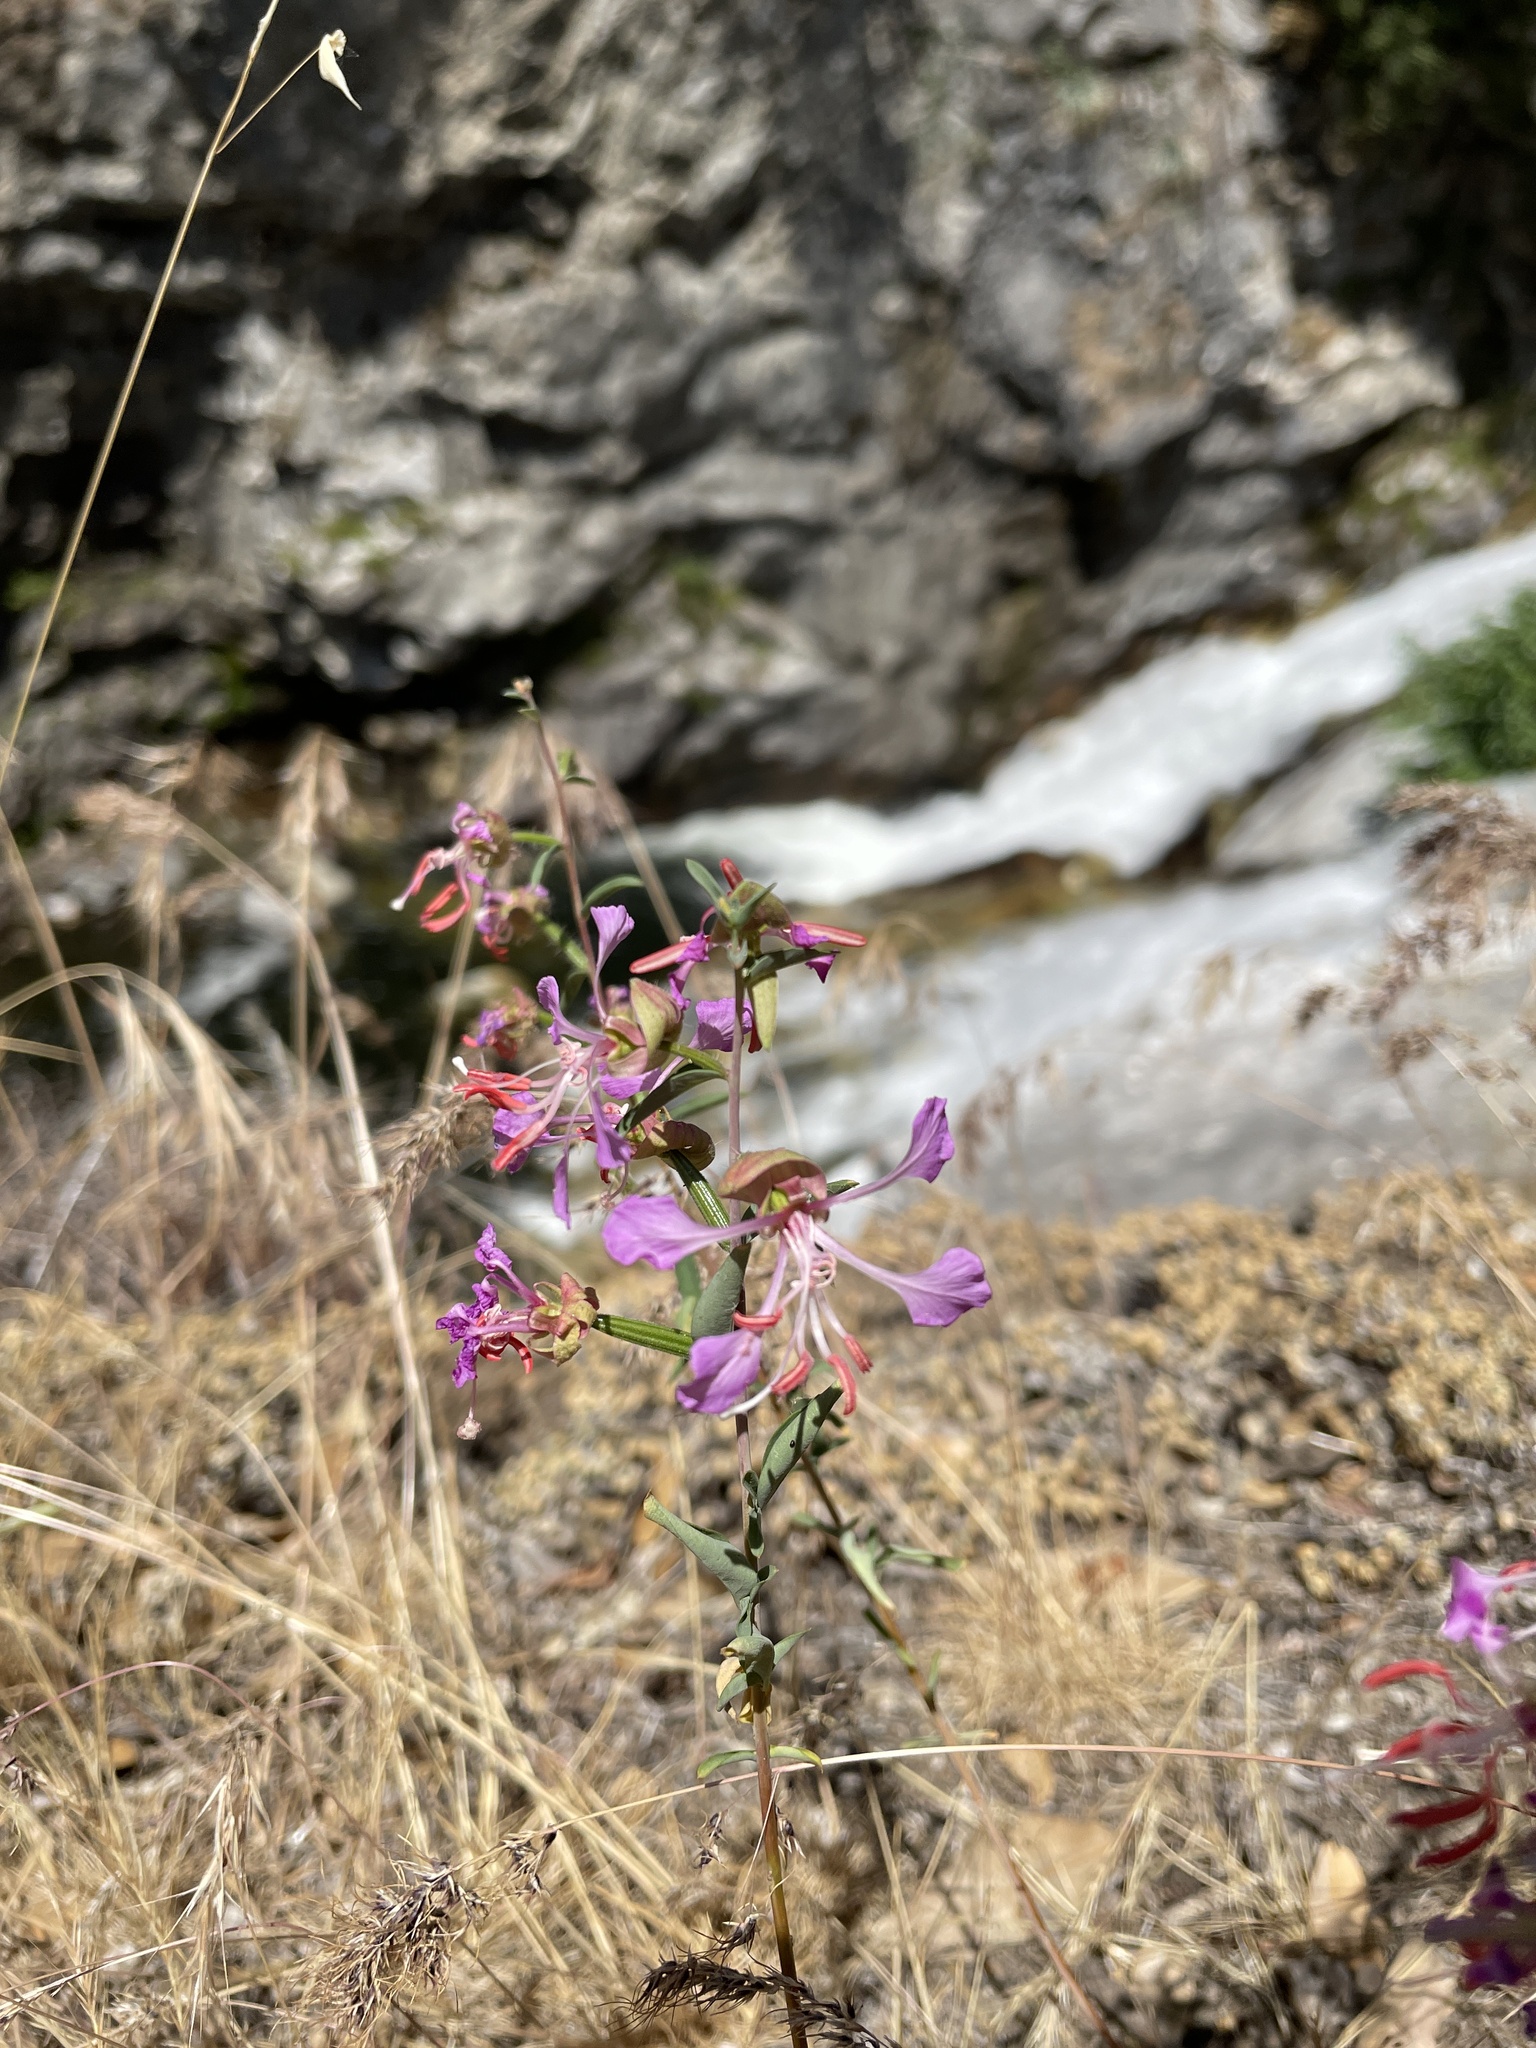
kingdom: Plantae
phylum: Tracheophyta
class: Magnoliopsida
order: Myrtales
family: Onagraceae
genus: Clarkia
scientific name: Clarkia unguiculata
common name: Clarkia
